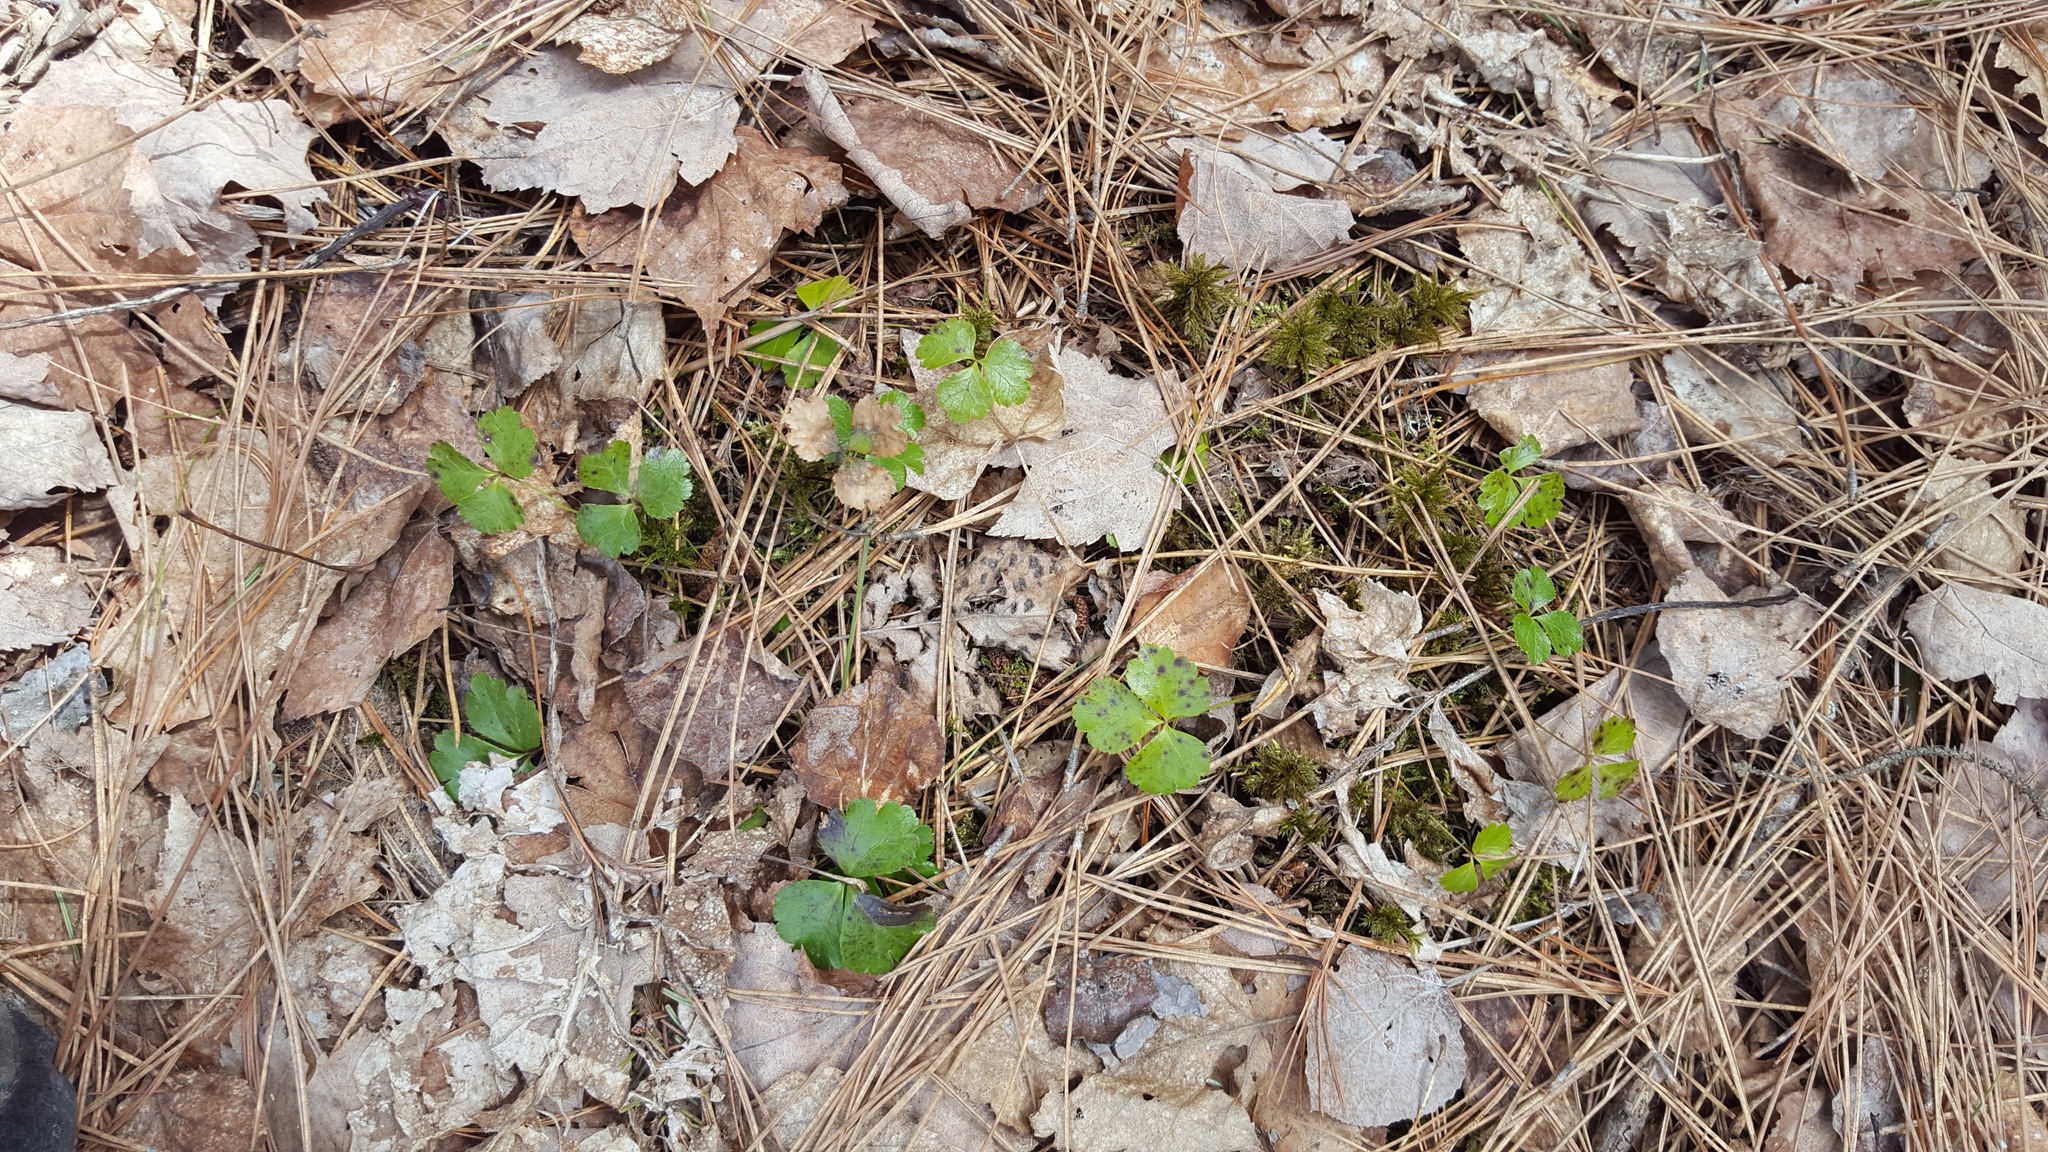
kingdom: Plantae
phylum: Tracheophyta
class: Magnoliopsida
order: Ranunculales
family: Ranunculaceae
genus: Coptis
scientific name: Coptis trifolia
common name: Canker-root
